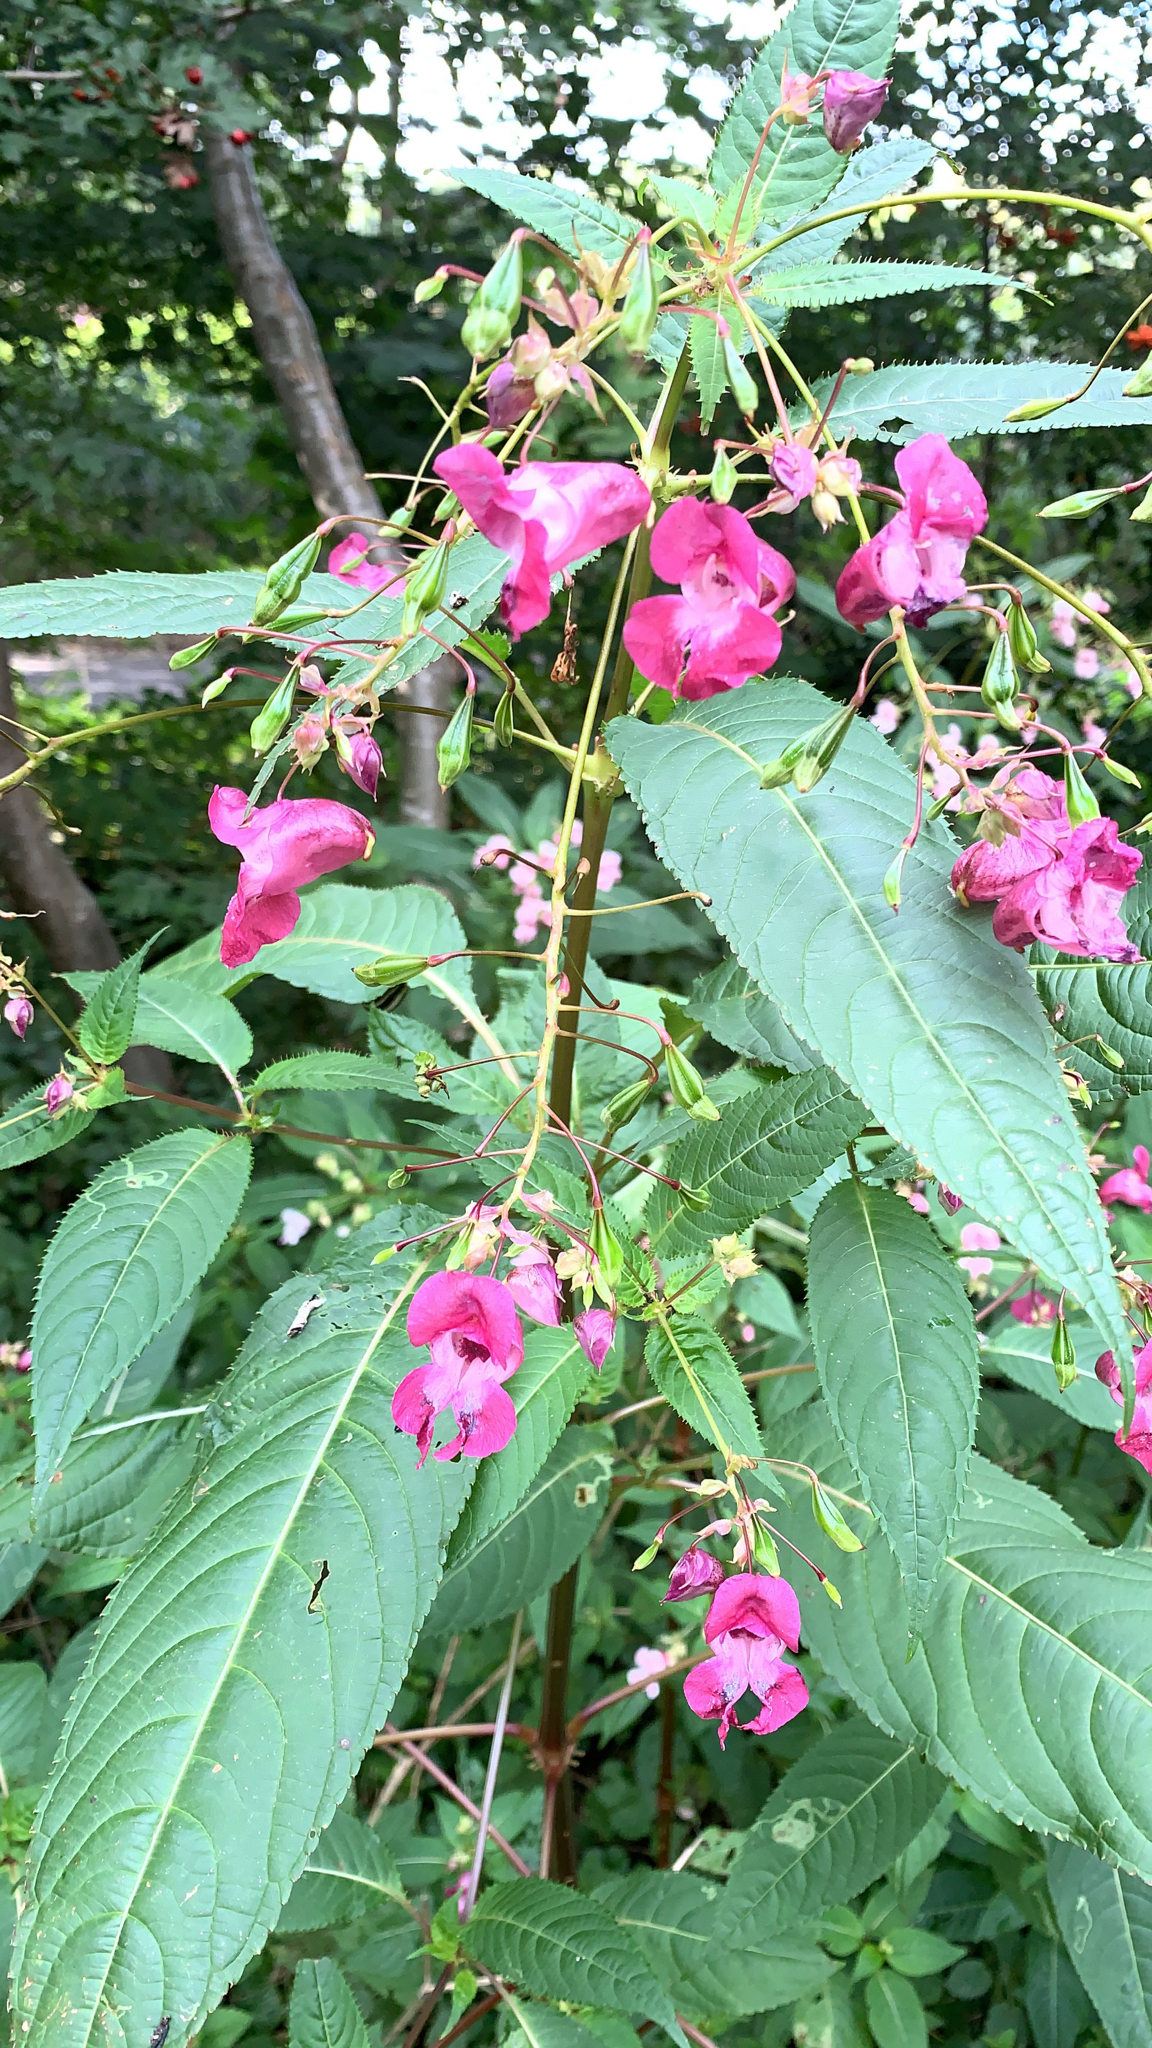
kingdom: Plantae
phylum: Tracheophyta
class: Magnoliopsida
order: Ericales
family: Balsaminaceae
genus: Impatiens
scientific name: Impatiens glandulifera
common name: Himalayan balsam
